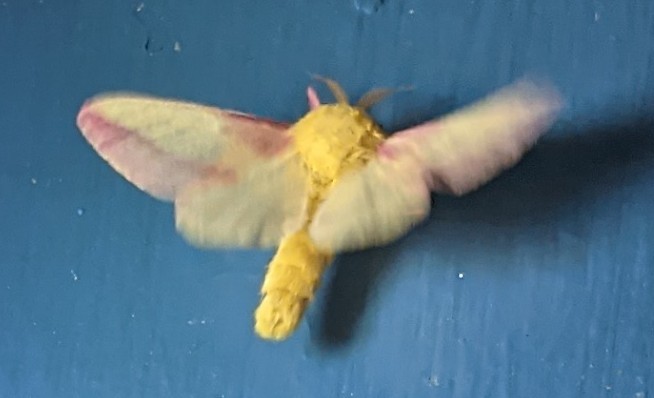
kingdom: Animalia
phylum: Arthropoda
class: Insecta
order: Lepidoptera
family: Saturniidae
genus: Dryocampa
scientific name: Dryocampa rubicunda
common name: Rosy maple moth
